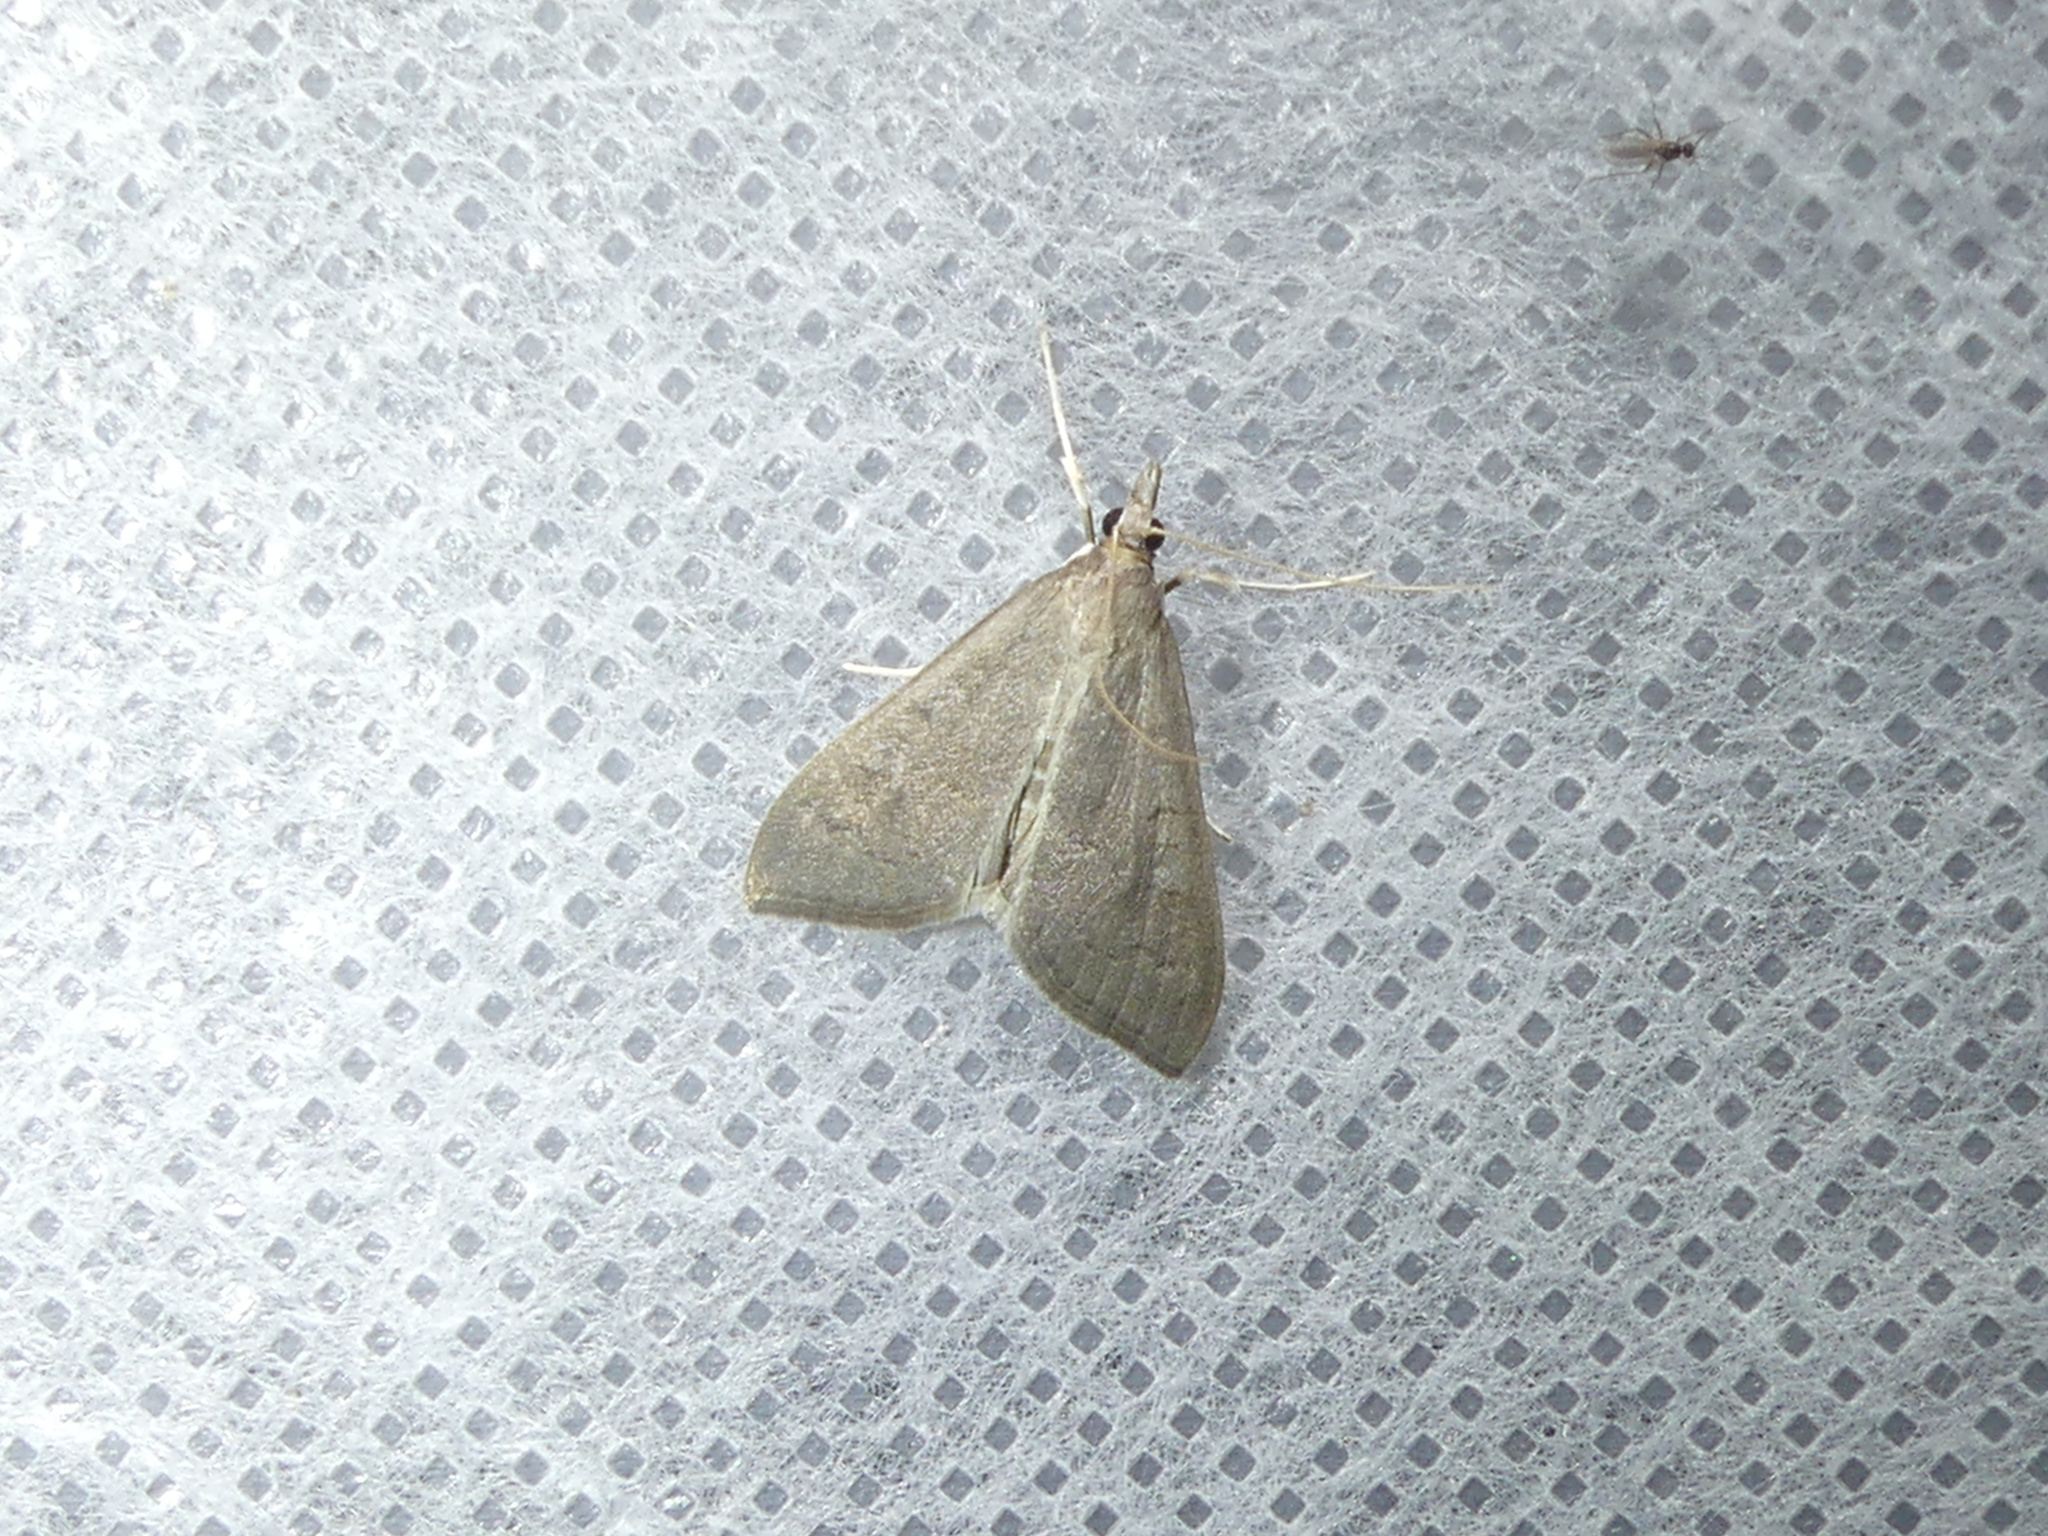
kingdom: Animalia
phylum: Arthropoda
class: Insecta
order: Lepidoptera
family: Crambidae
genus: Mecyna
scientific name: Mecyna asinalis
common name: Coastal pearl
